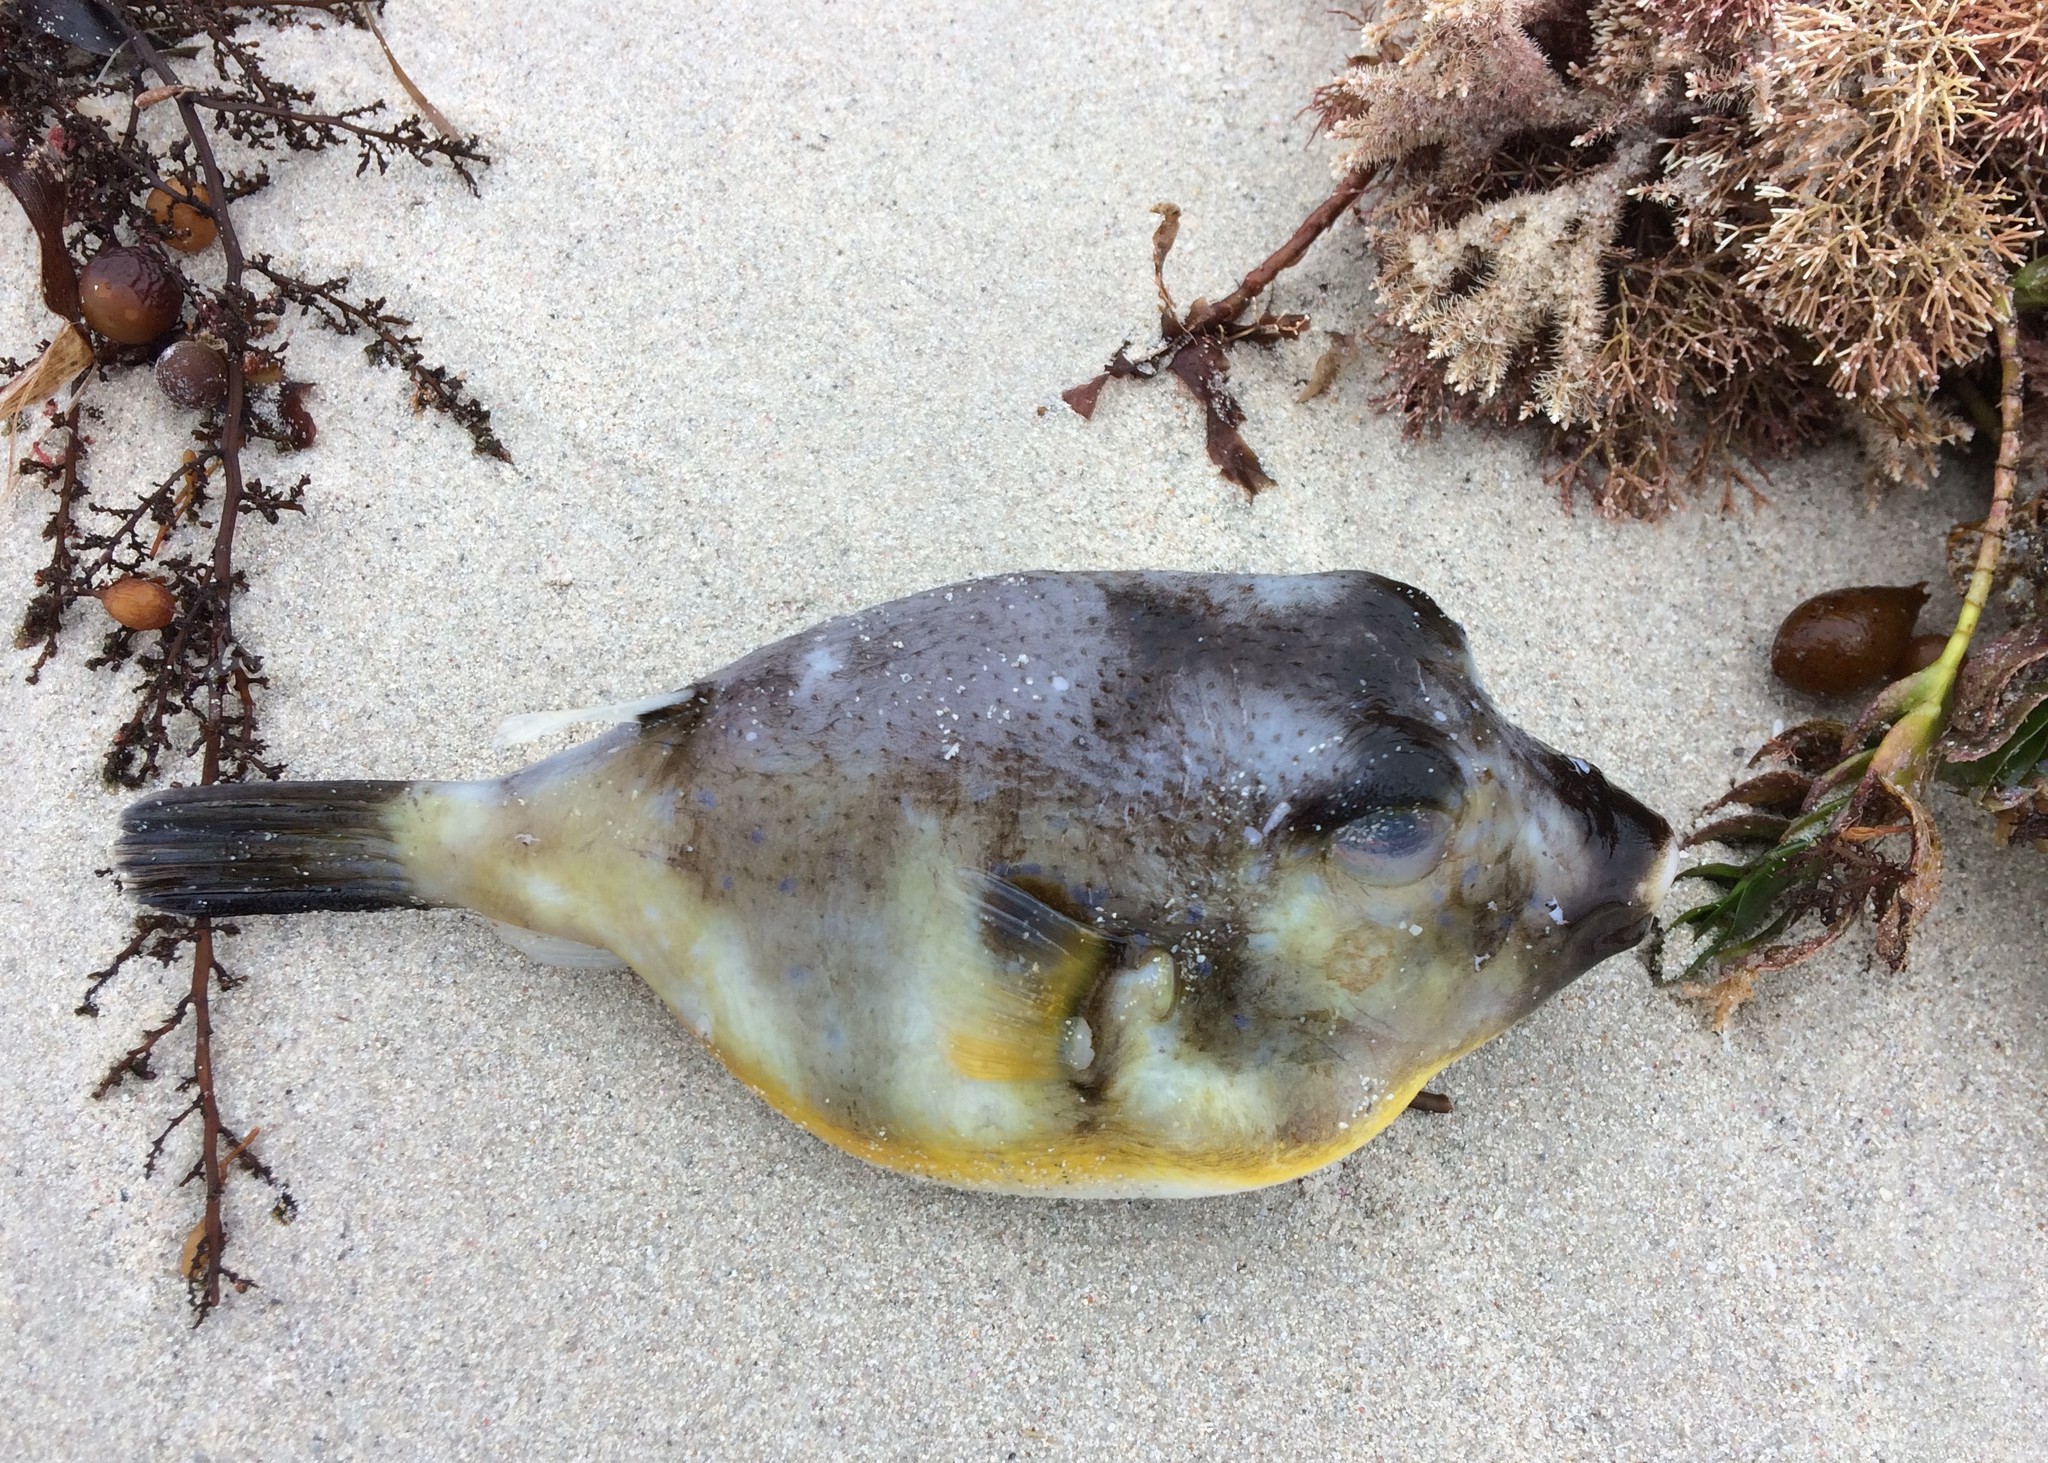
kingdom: Animalia
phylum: Chordata
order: Tetraodontiformes
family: Tetraodontidae
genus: Omegophora
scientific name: Omegophora cyanopunctata
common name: Bluespotted toadfish
